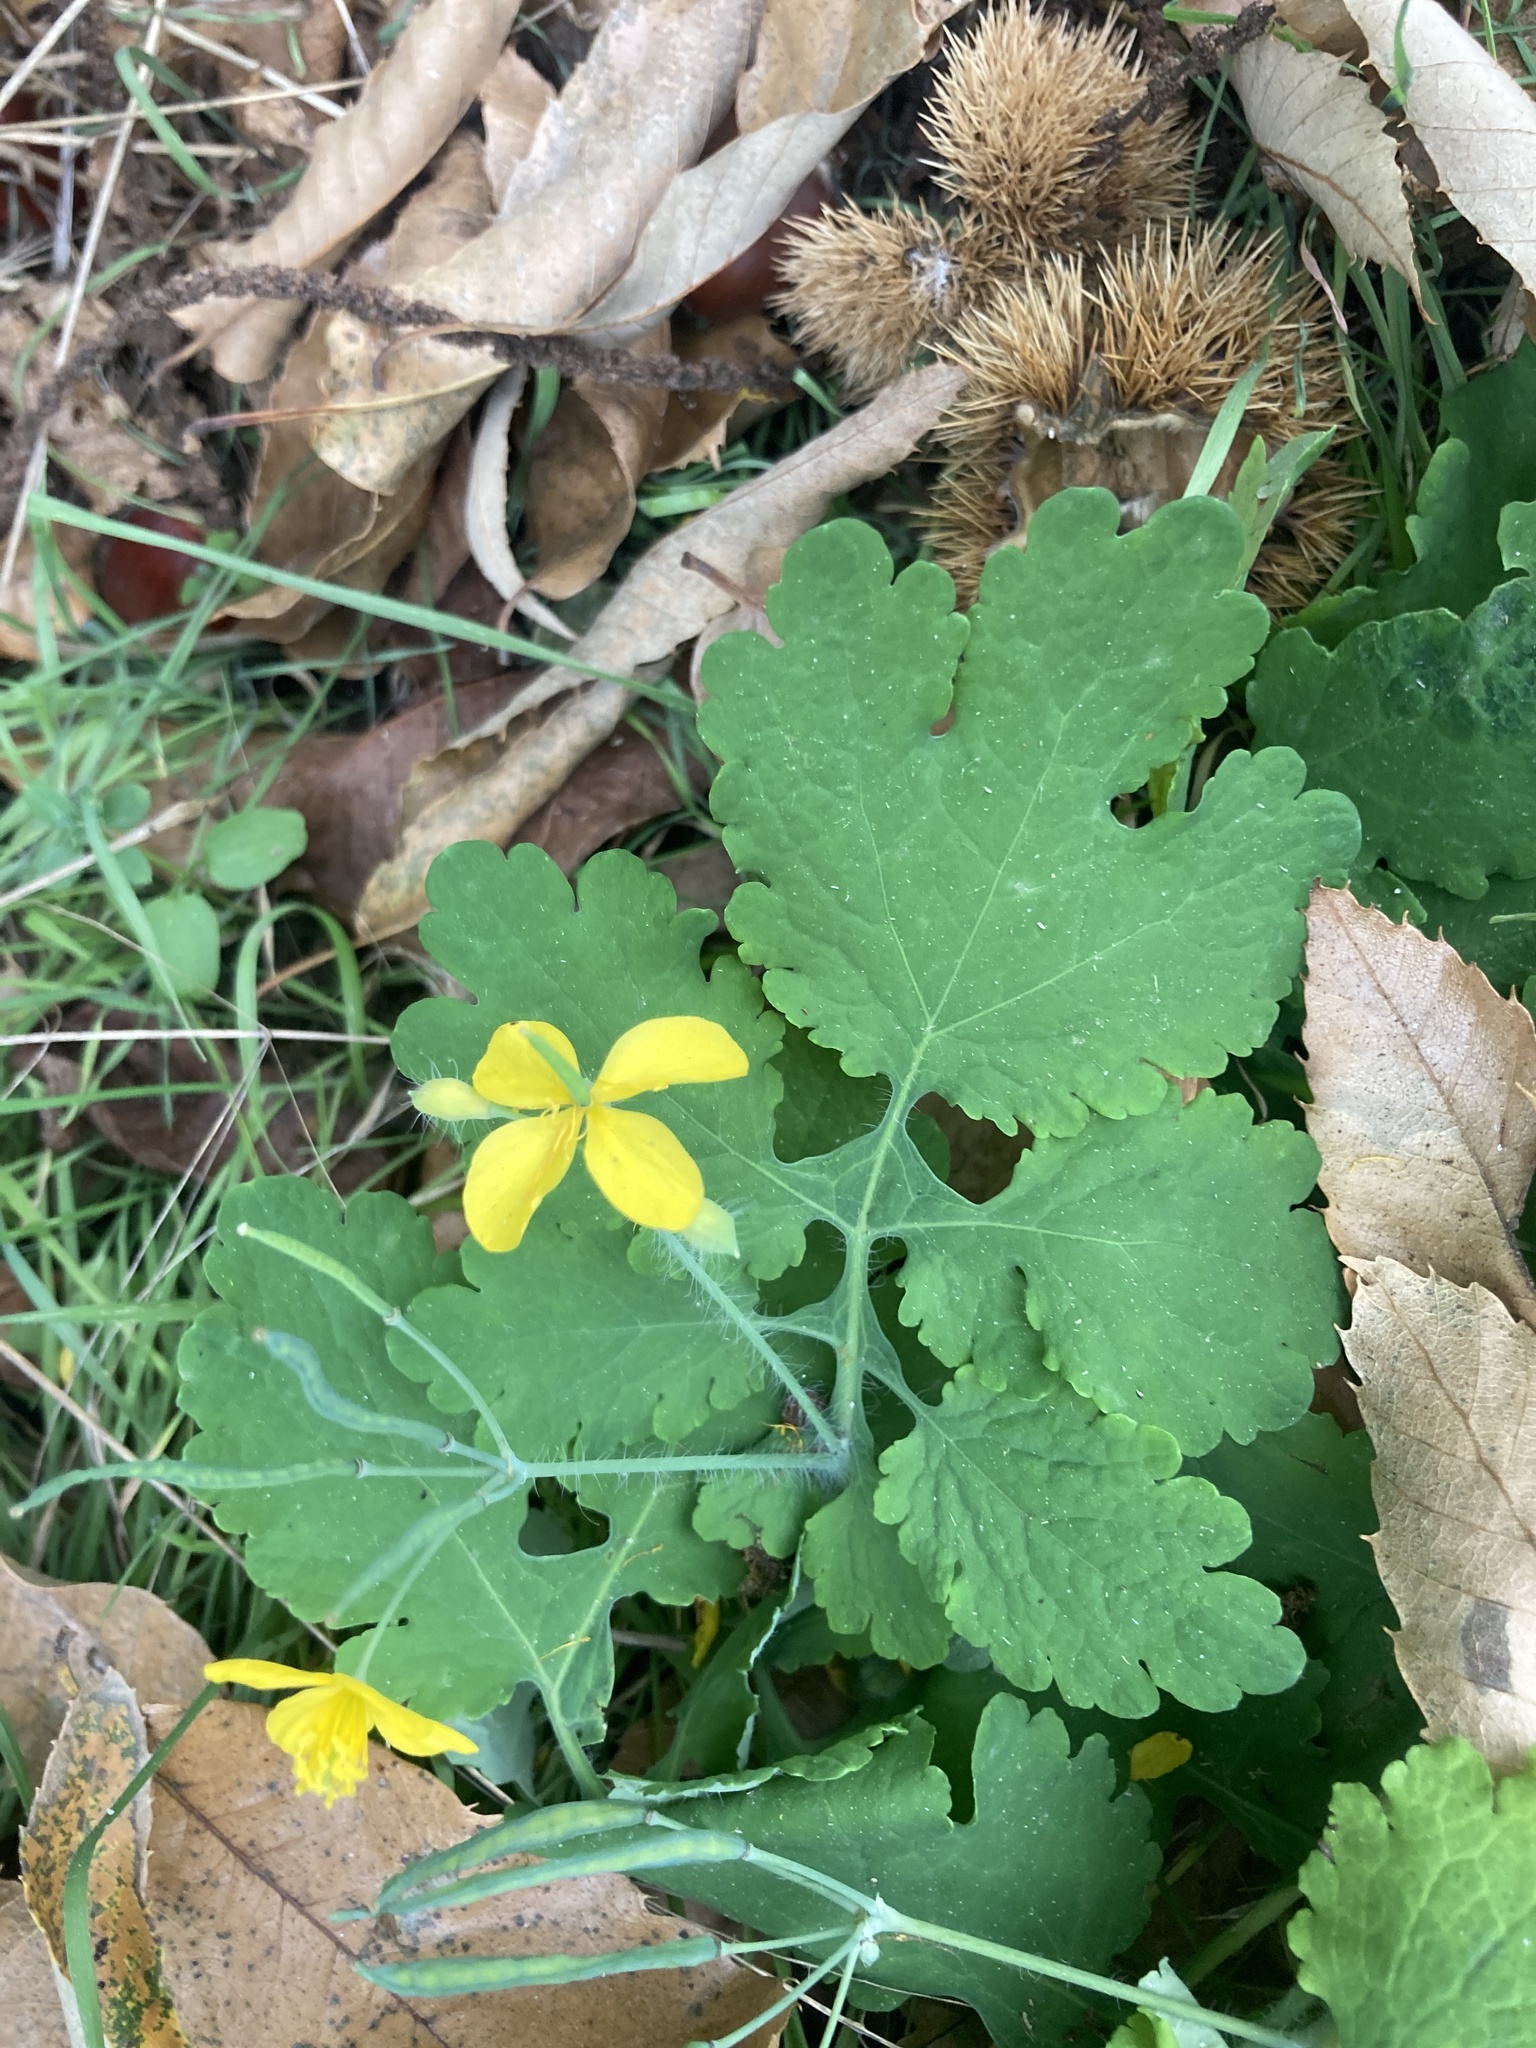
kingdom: Plantae
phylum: Tracheophyta
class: Magnoliopsida
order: Ranunculales
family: Papaveraceae
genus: Chelidonium
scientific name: Chelidonium majus
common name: Greater celandine
